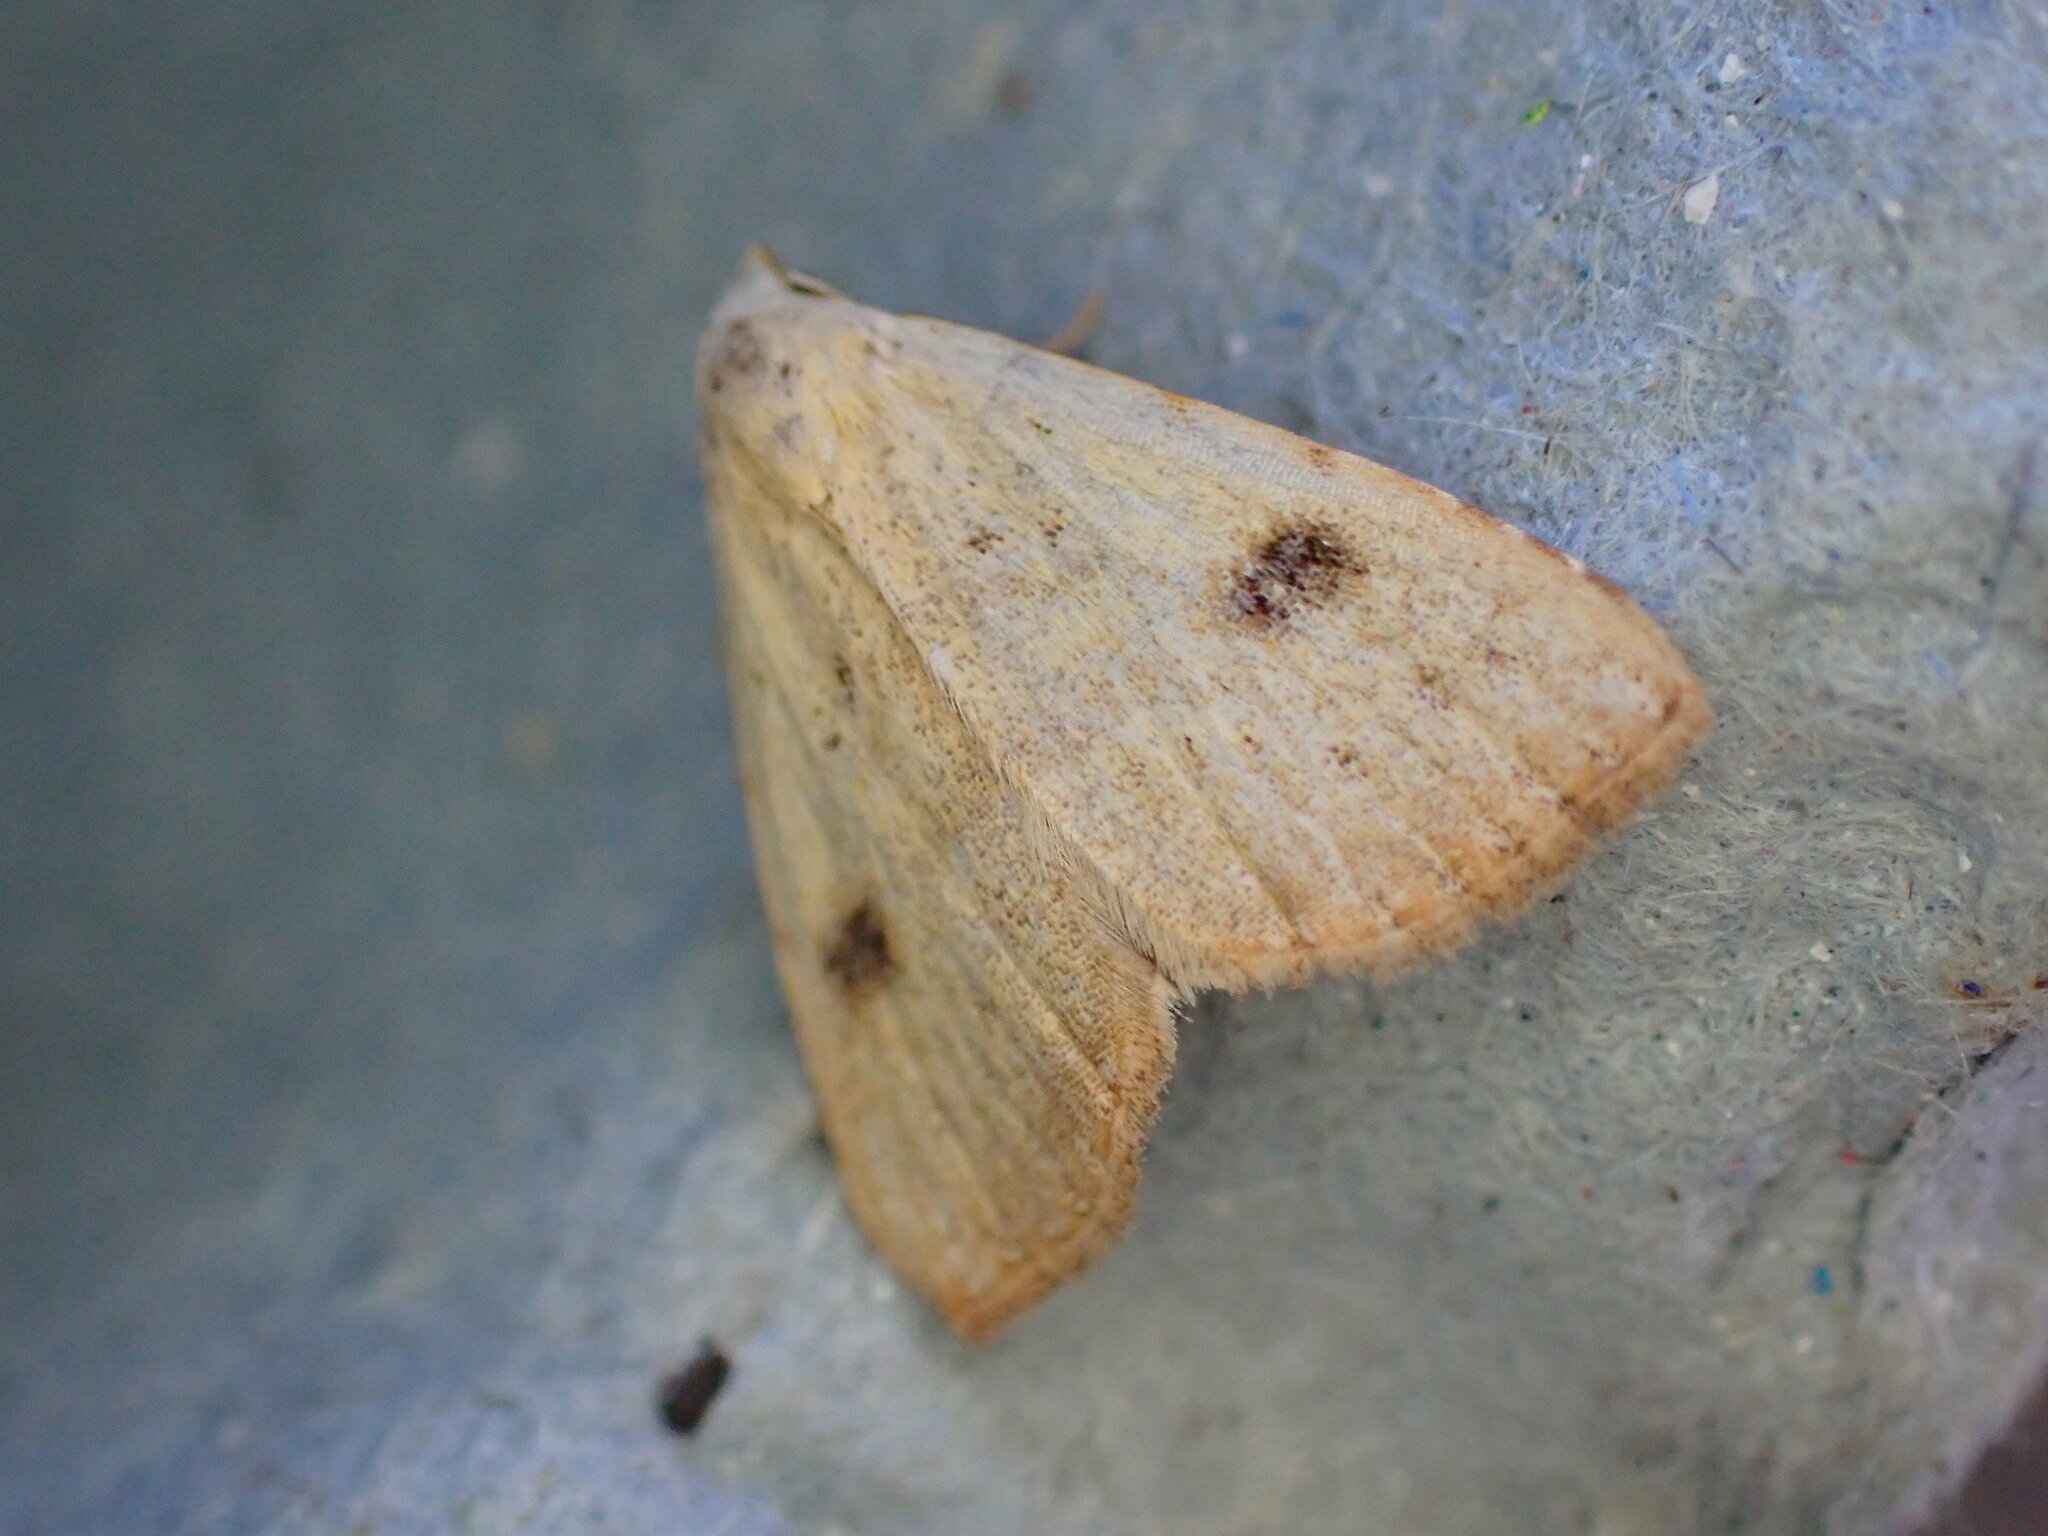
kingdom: Animalia
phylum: Arthropoda
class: Insecta
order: Lepidoptera
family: Erebidae
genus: Rivula
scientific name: Rivula sericealis
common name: Straw dot
